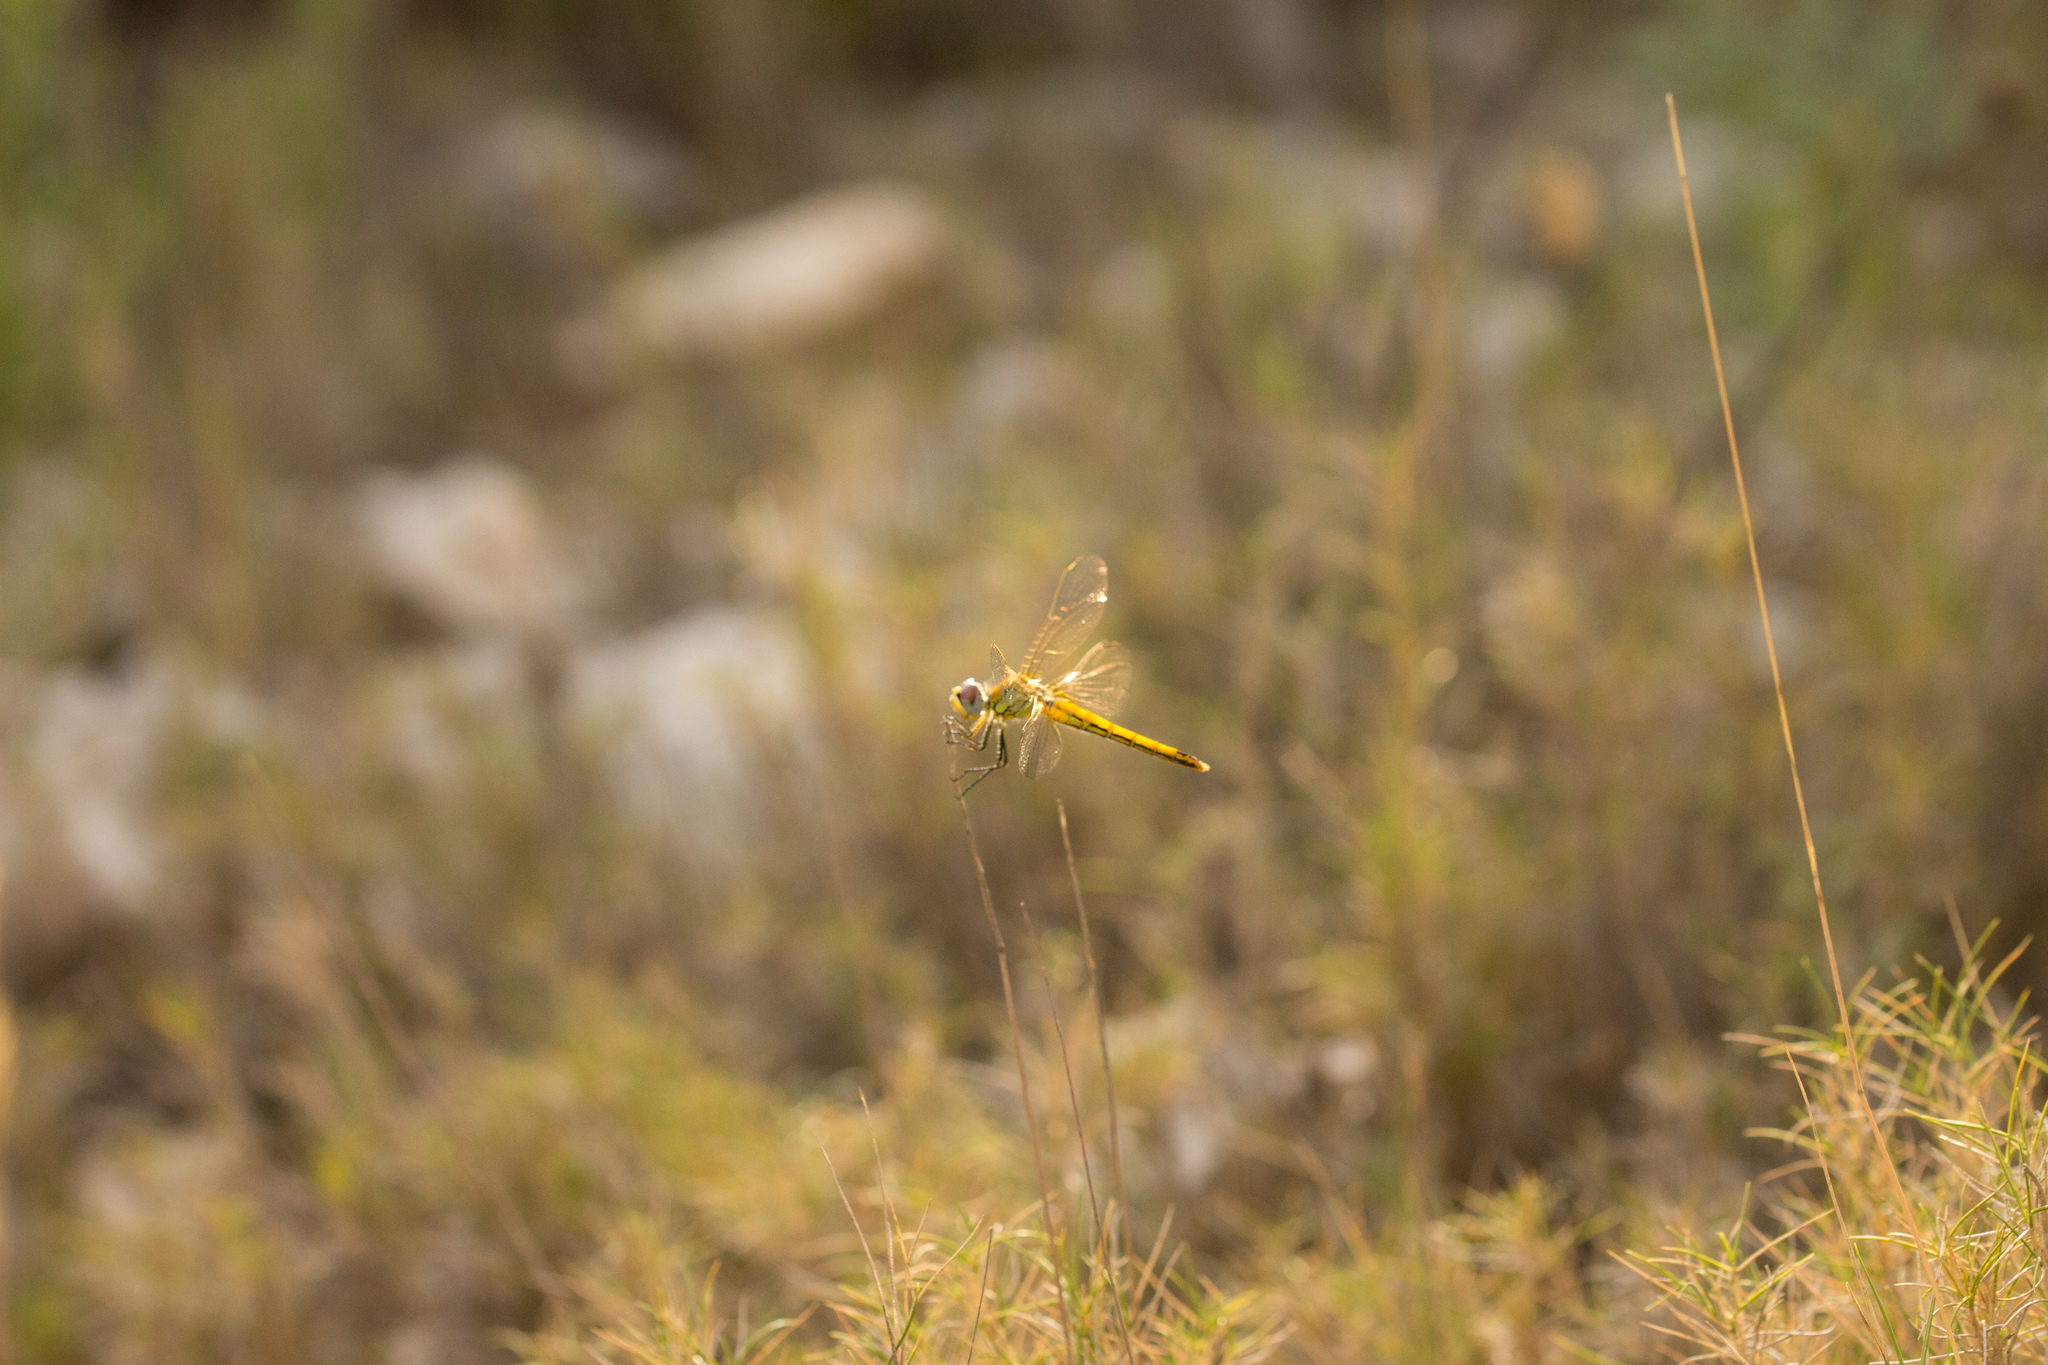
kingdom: Animalia
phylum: Arthropoda
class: Insecta
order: Odonata
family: Libellulidae
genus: Sympetrum
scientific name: Sympetrum fonscolombii
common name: Red-veined darter
